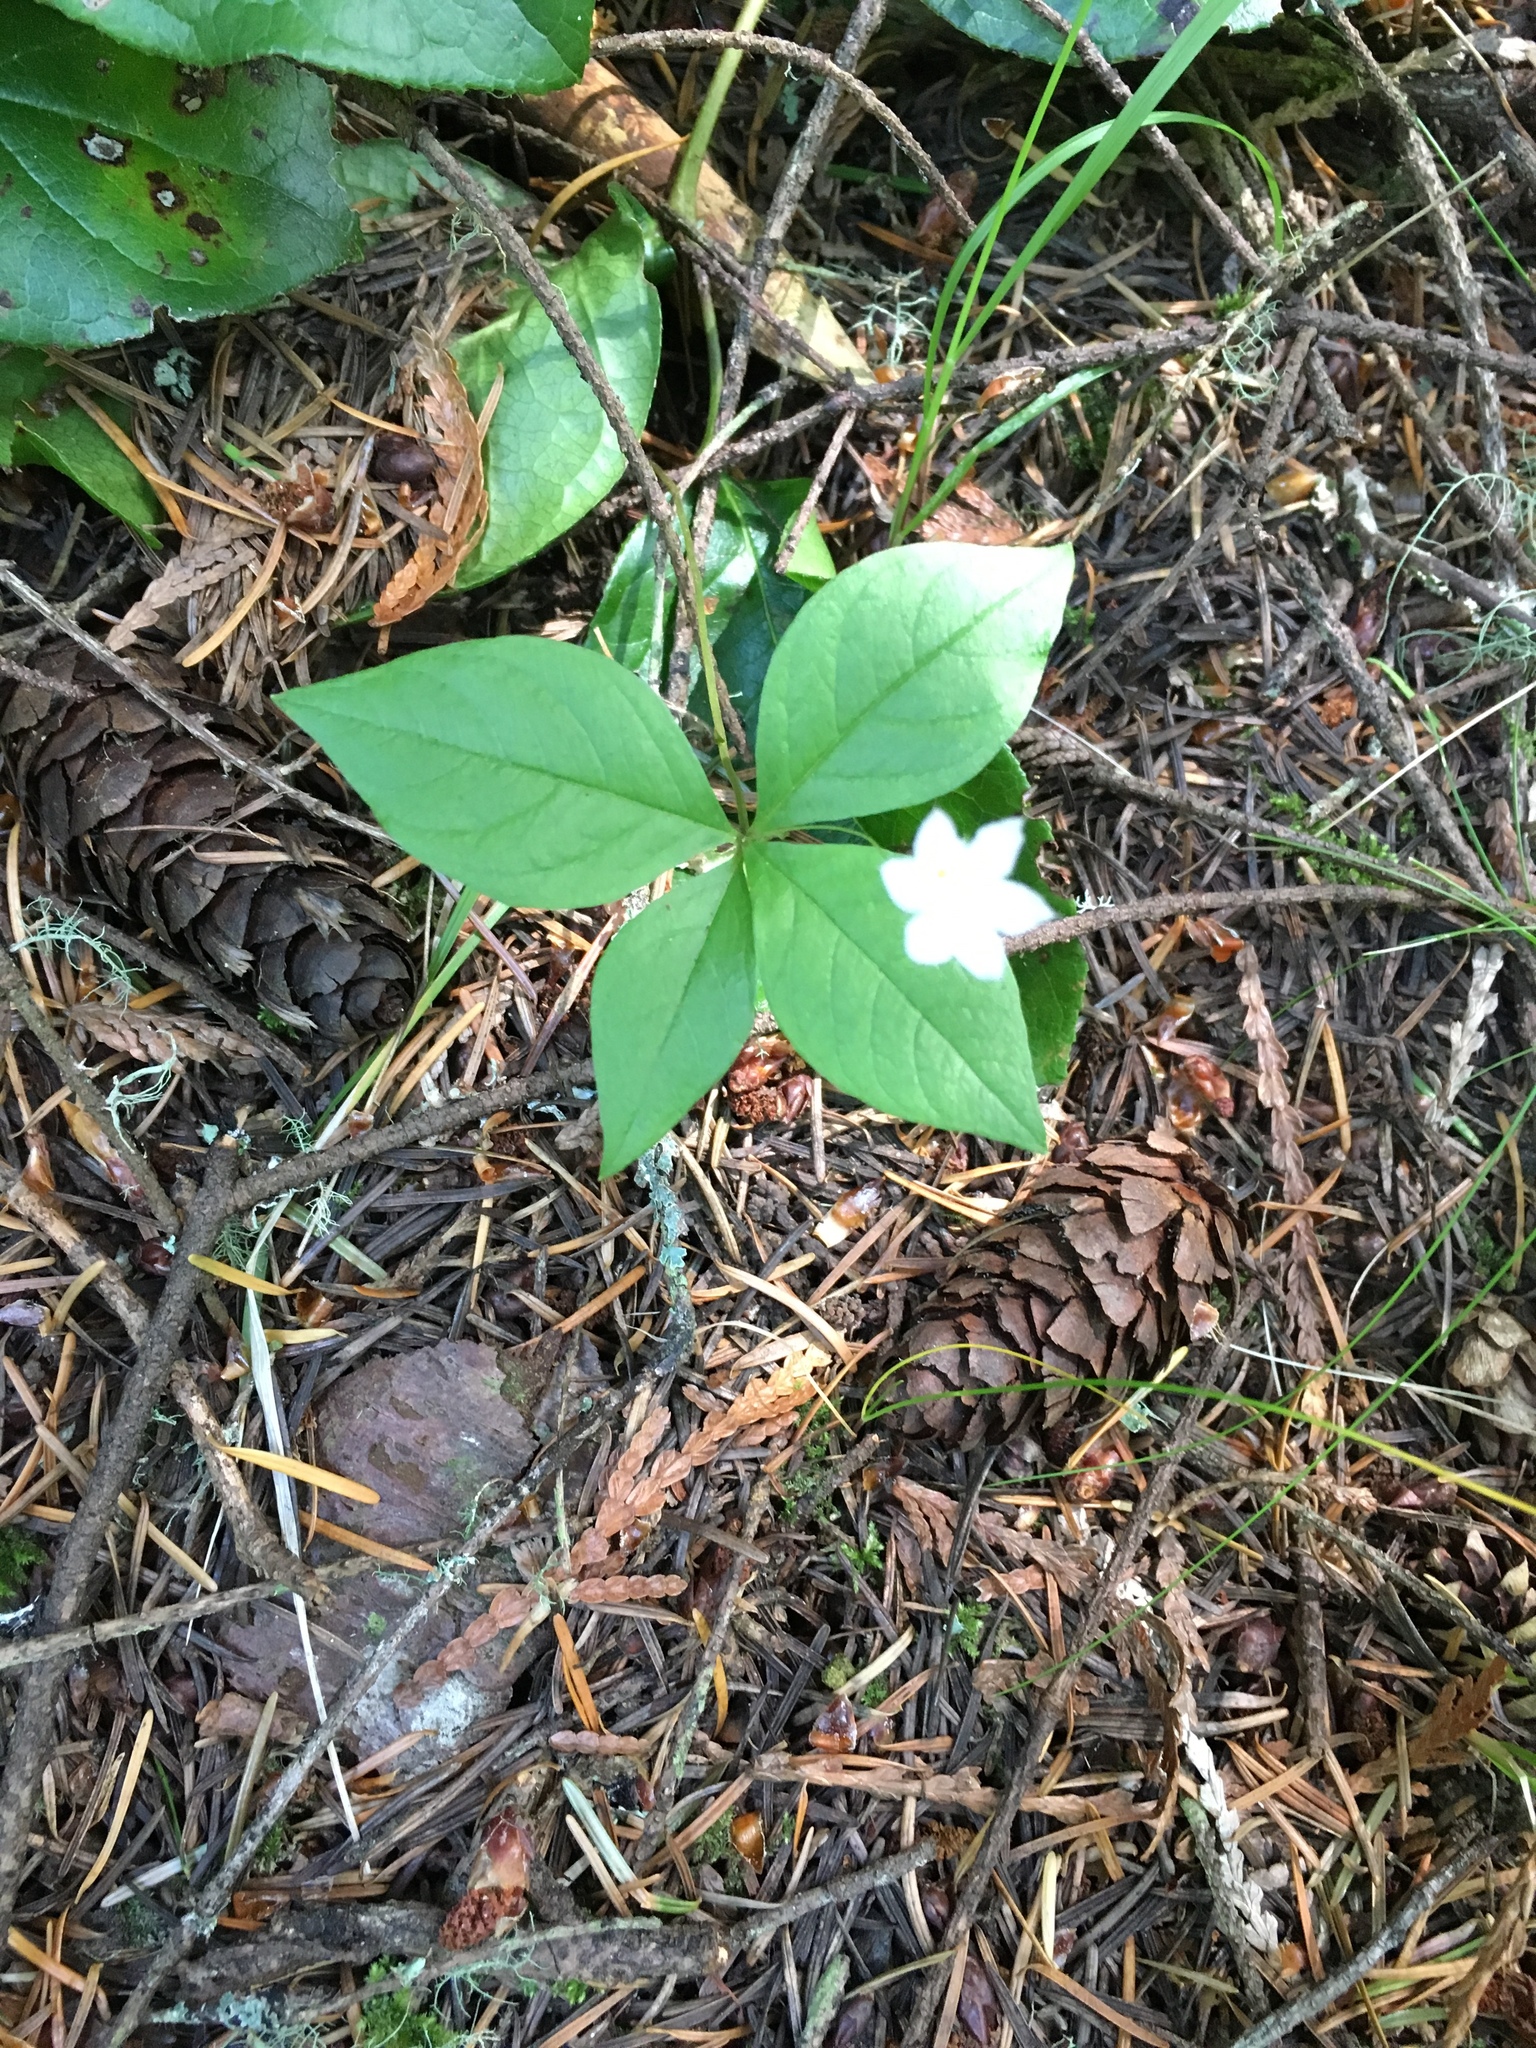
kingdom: Plantae
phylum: Tracheophyta
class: Magnoliopsida
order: Ericales
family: Primulaceae
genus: Lysimachia
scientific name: Lysimachia latifolia
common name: Pacific starflower
